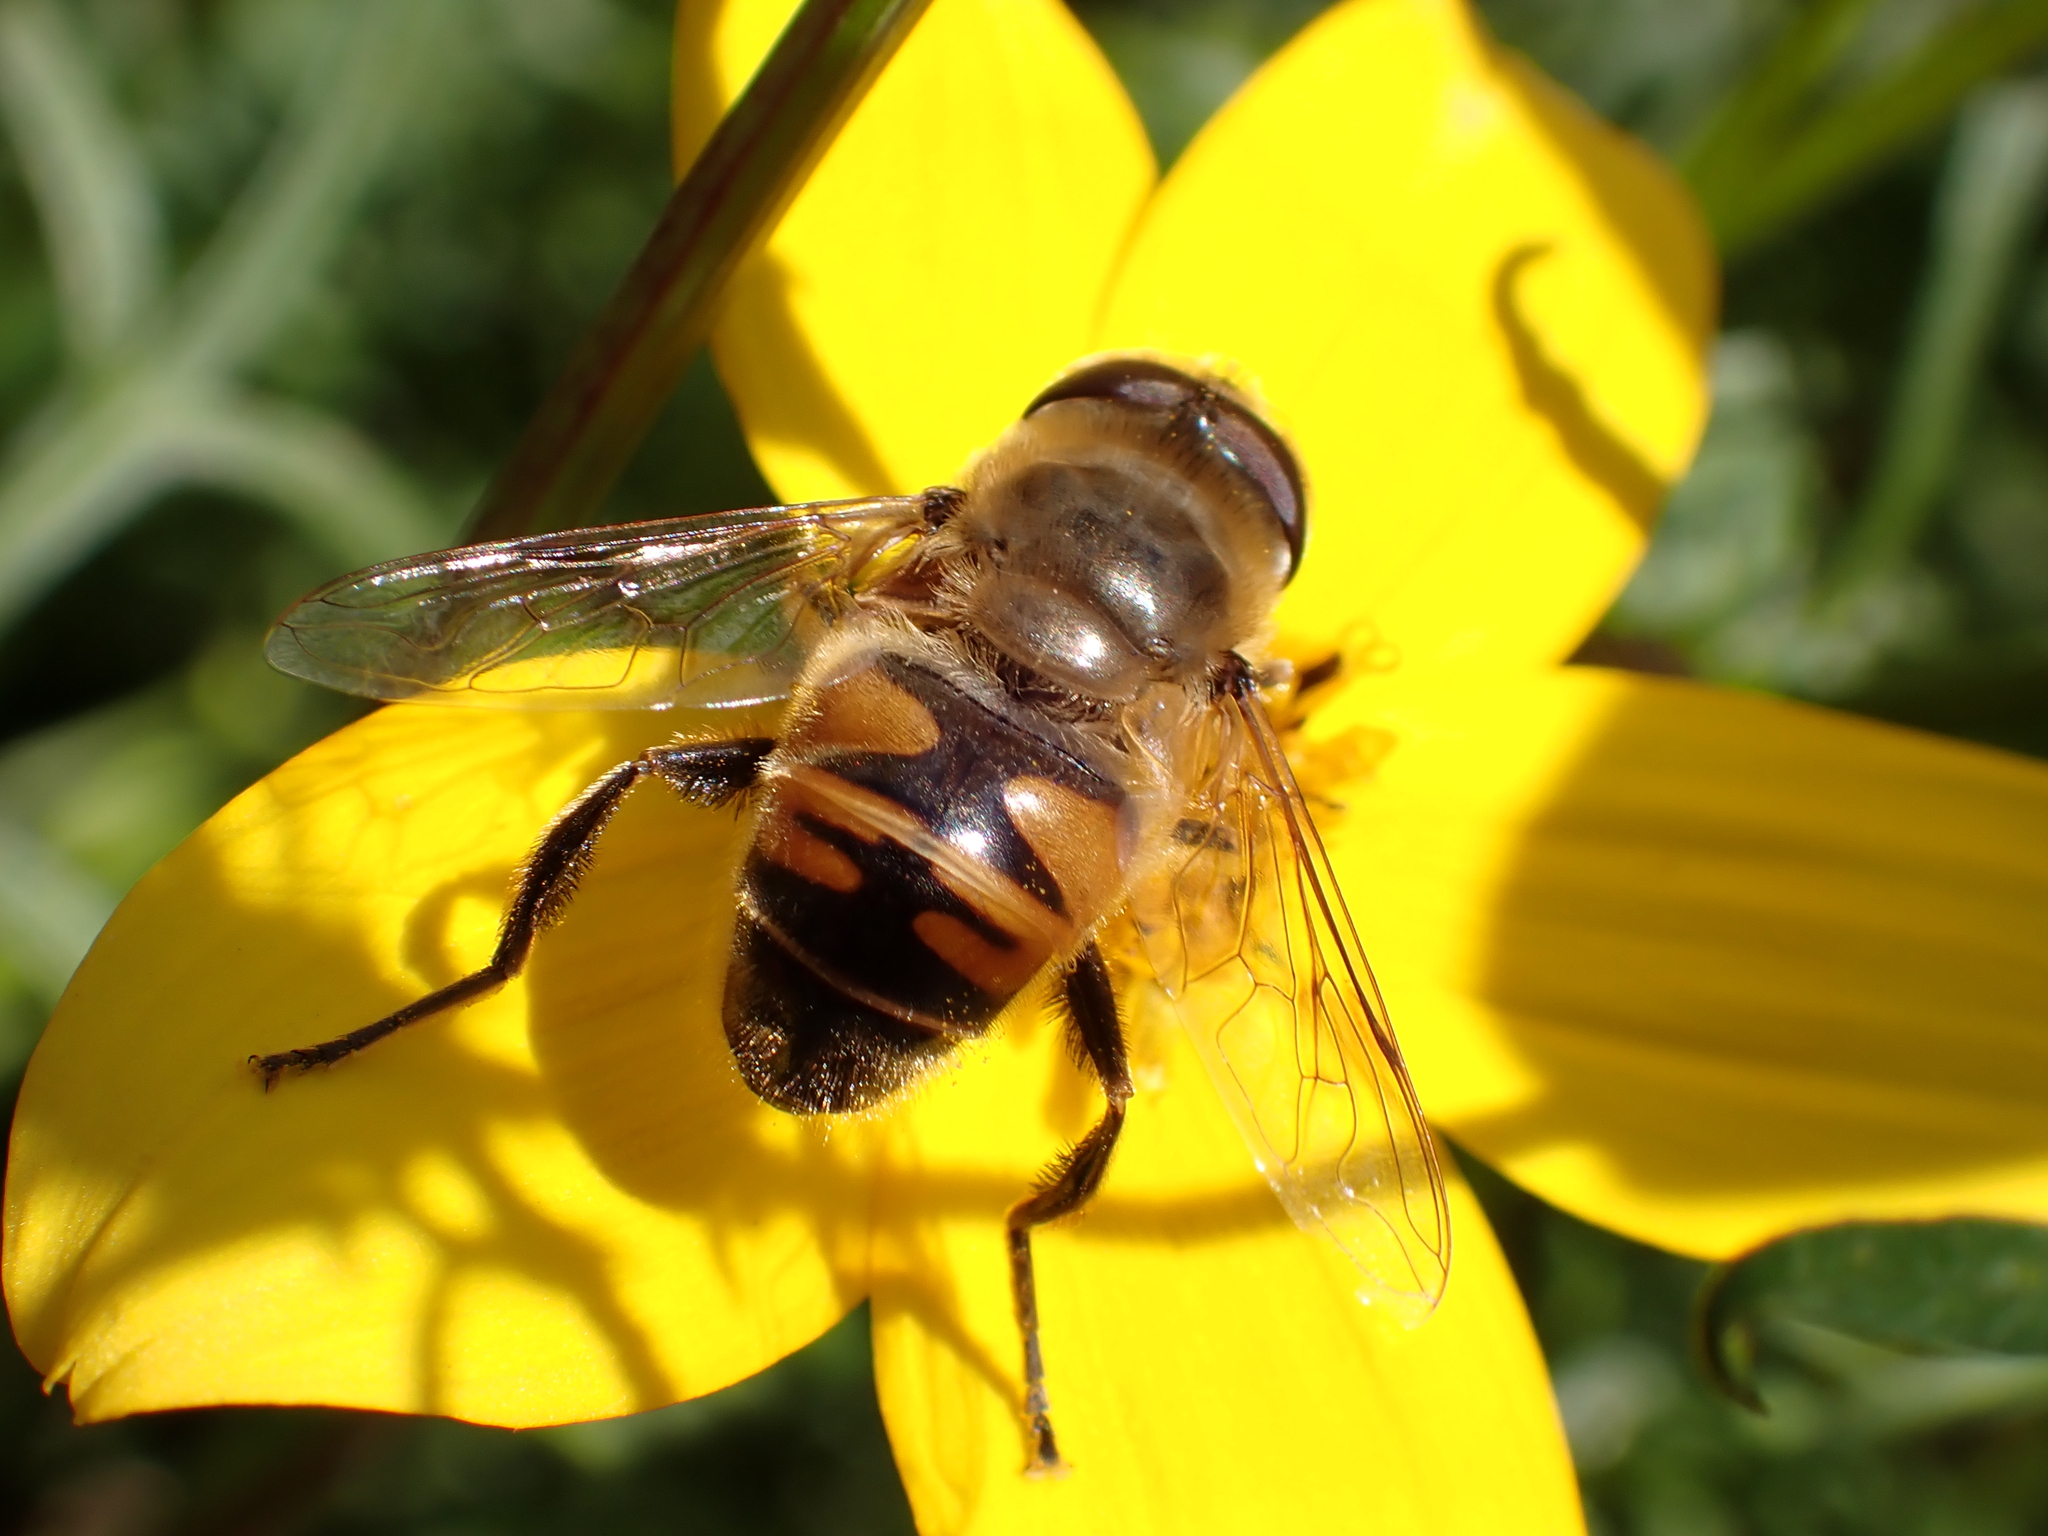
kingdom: Animalia
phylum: Arthropoda
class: Insecta
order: Diptera
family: Syrphidae
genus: Eristalis
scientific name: Eristalis tenax
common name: Drone fly
